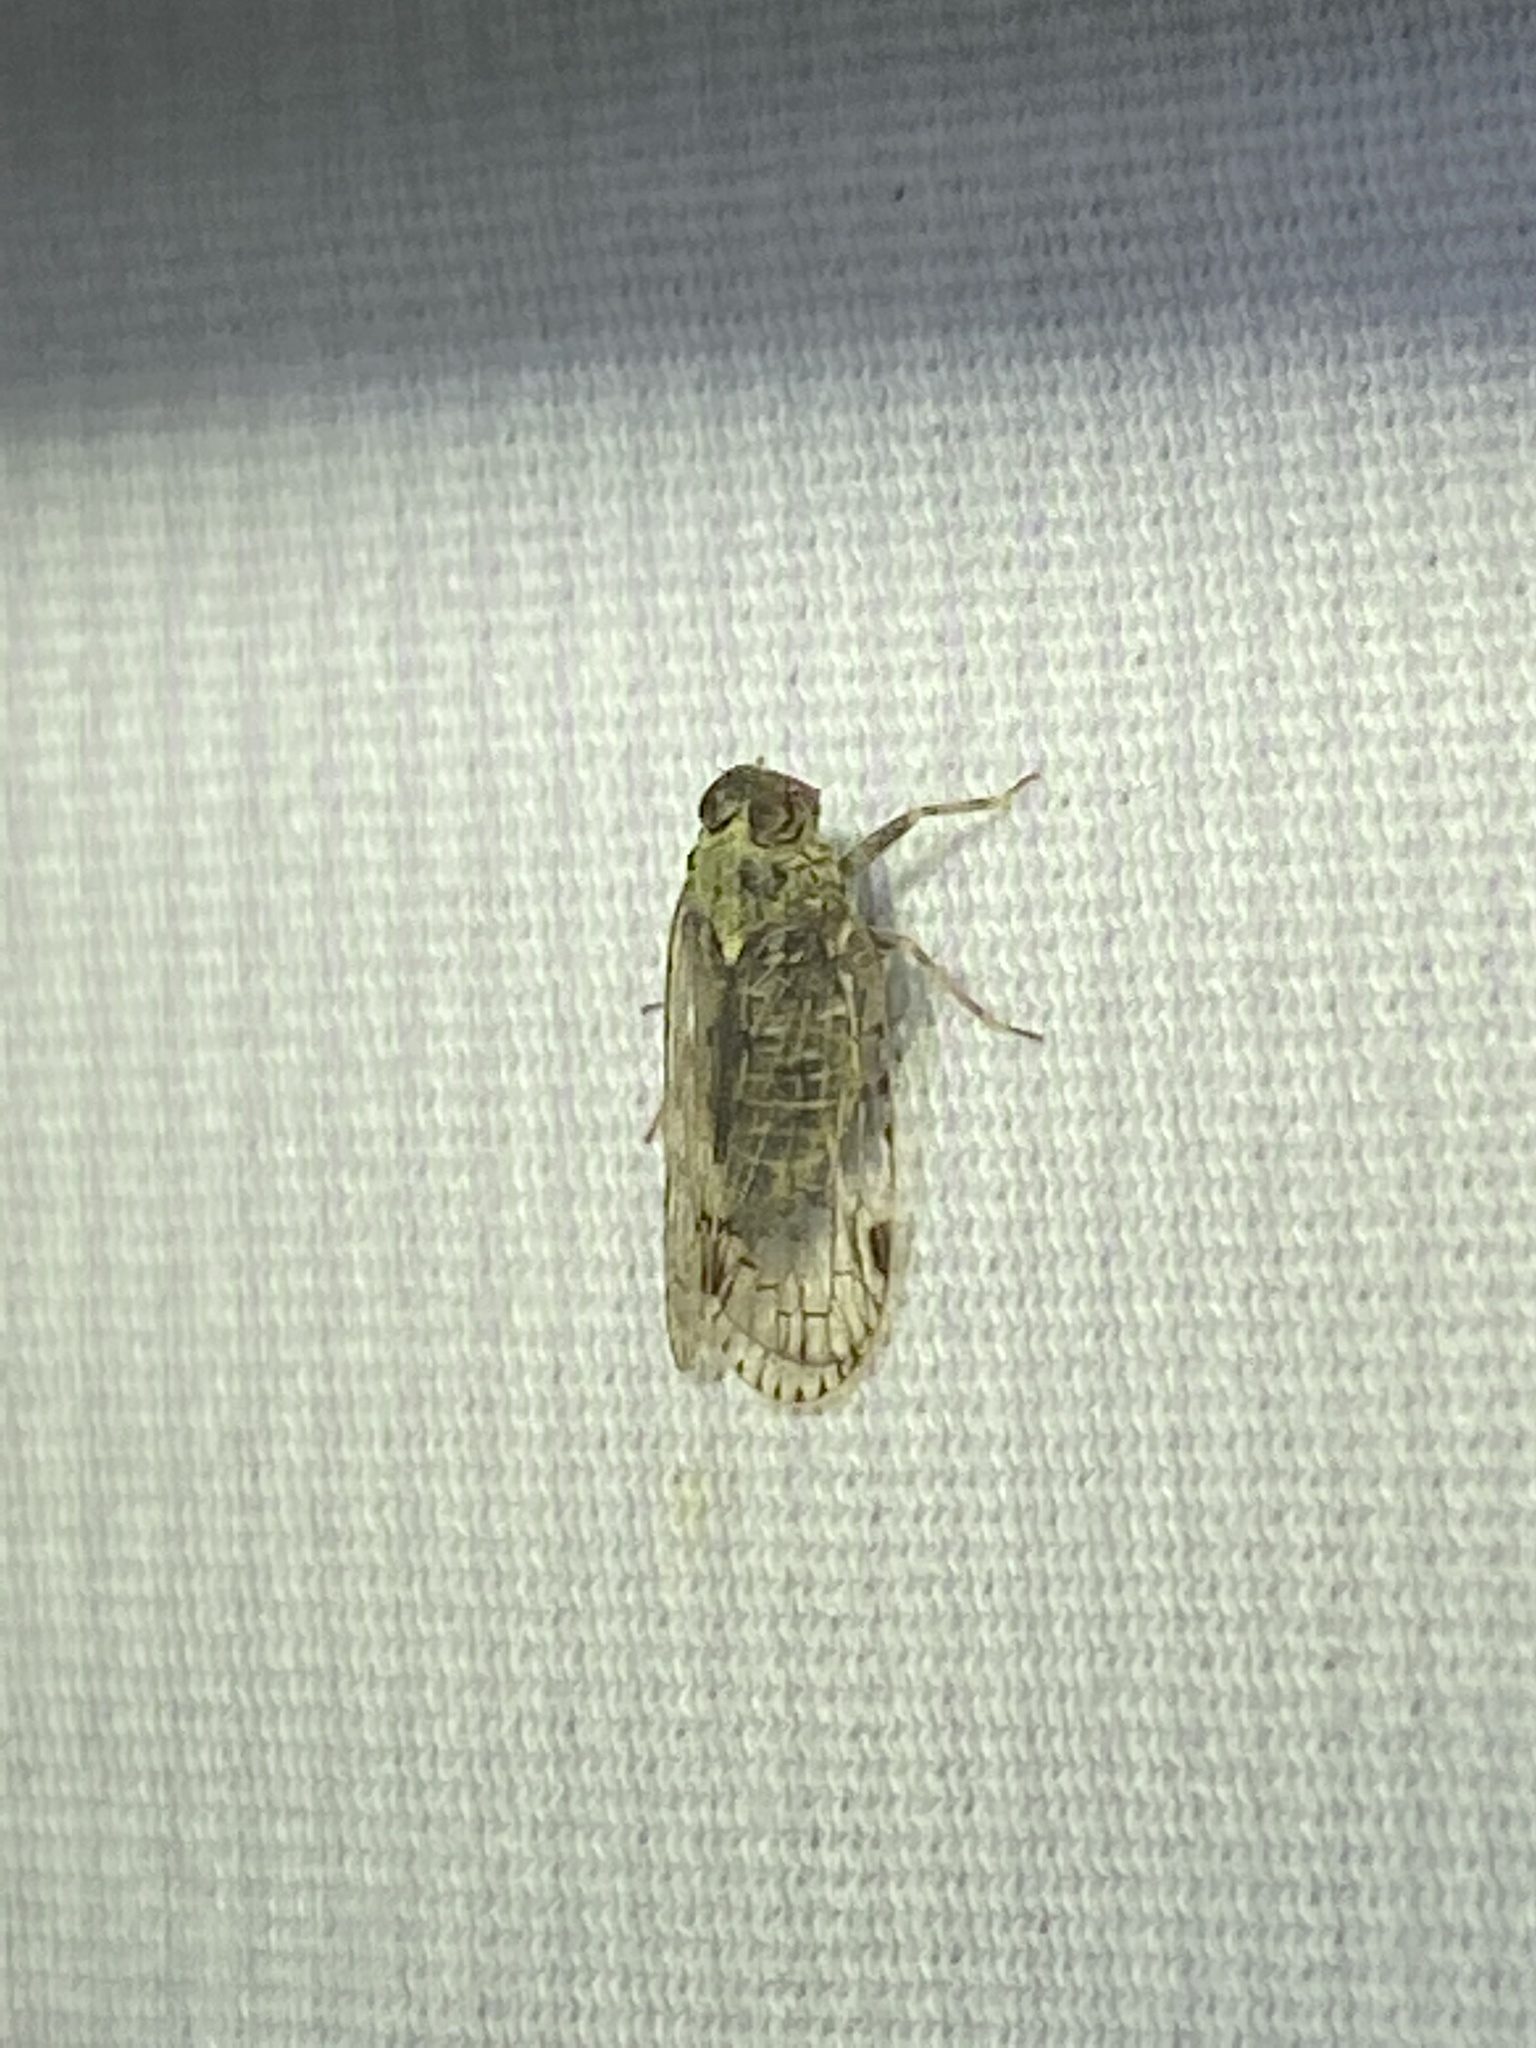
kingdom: Animalia
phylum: Arthropoda
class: Insecta
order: Hemiptera
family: Cixiidae
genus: Melanoliarus
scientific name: Melanoliarus placitus
